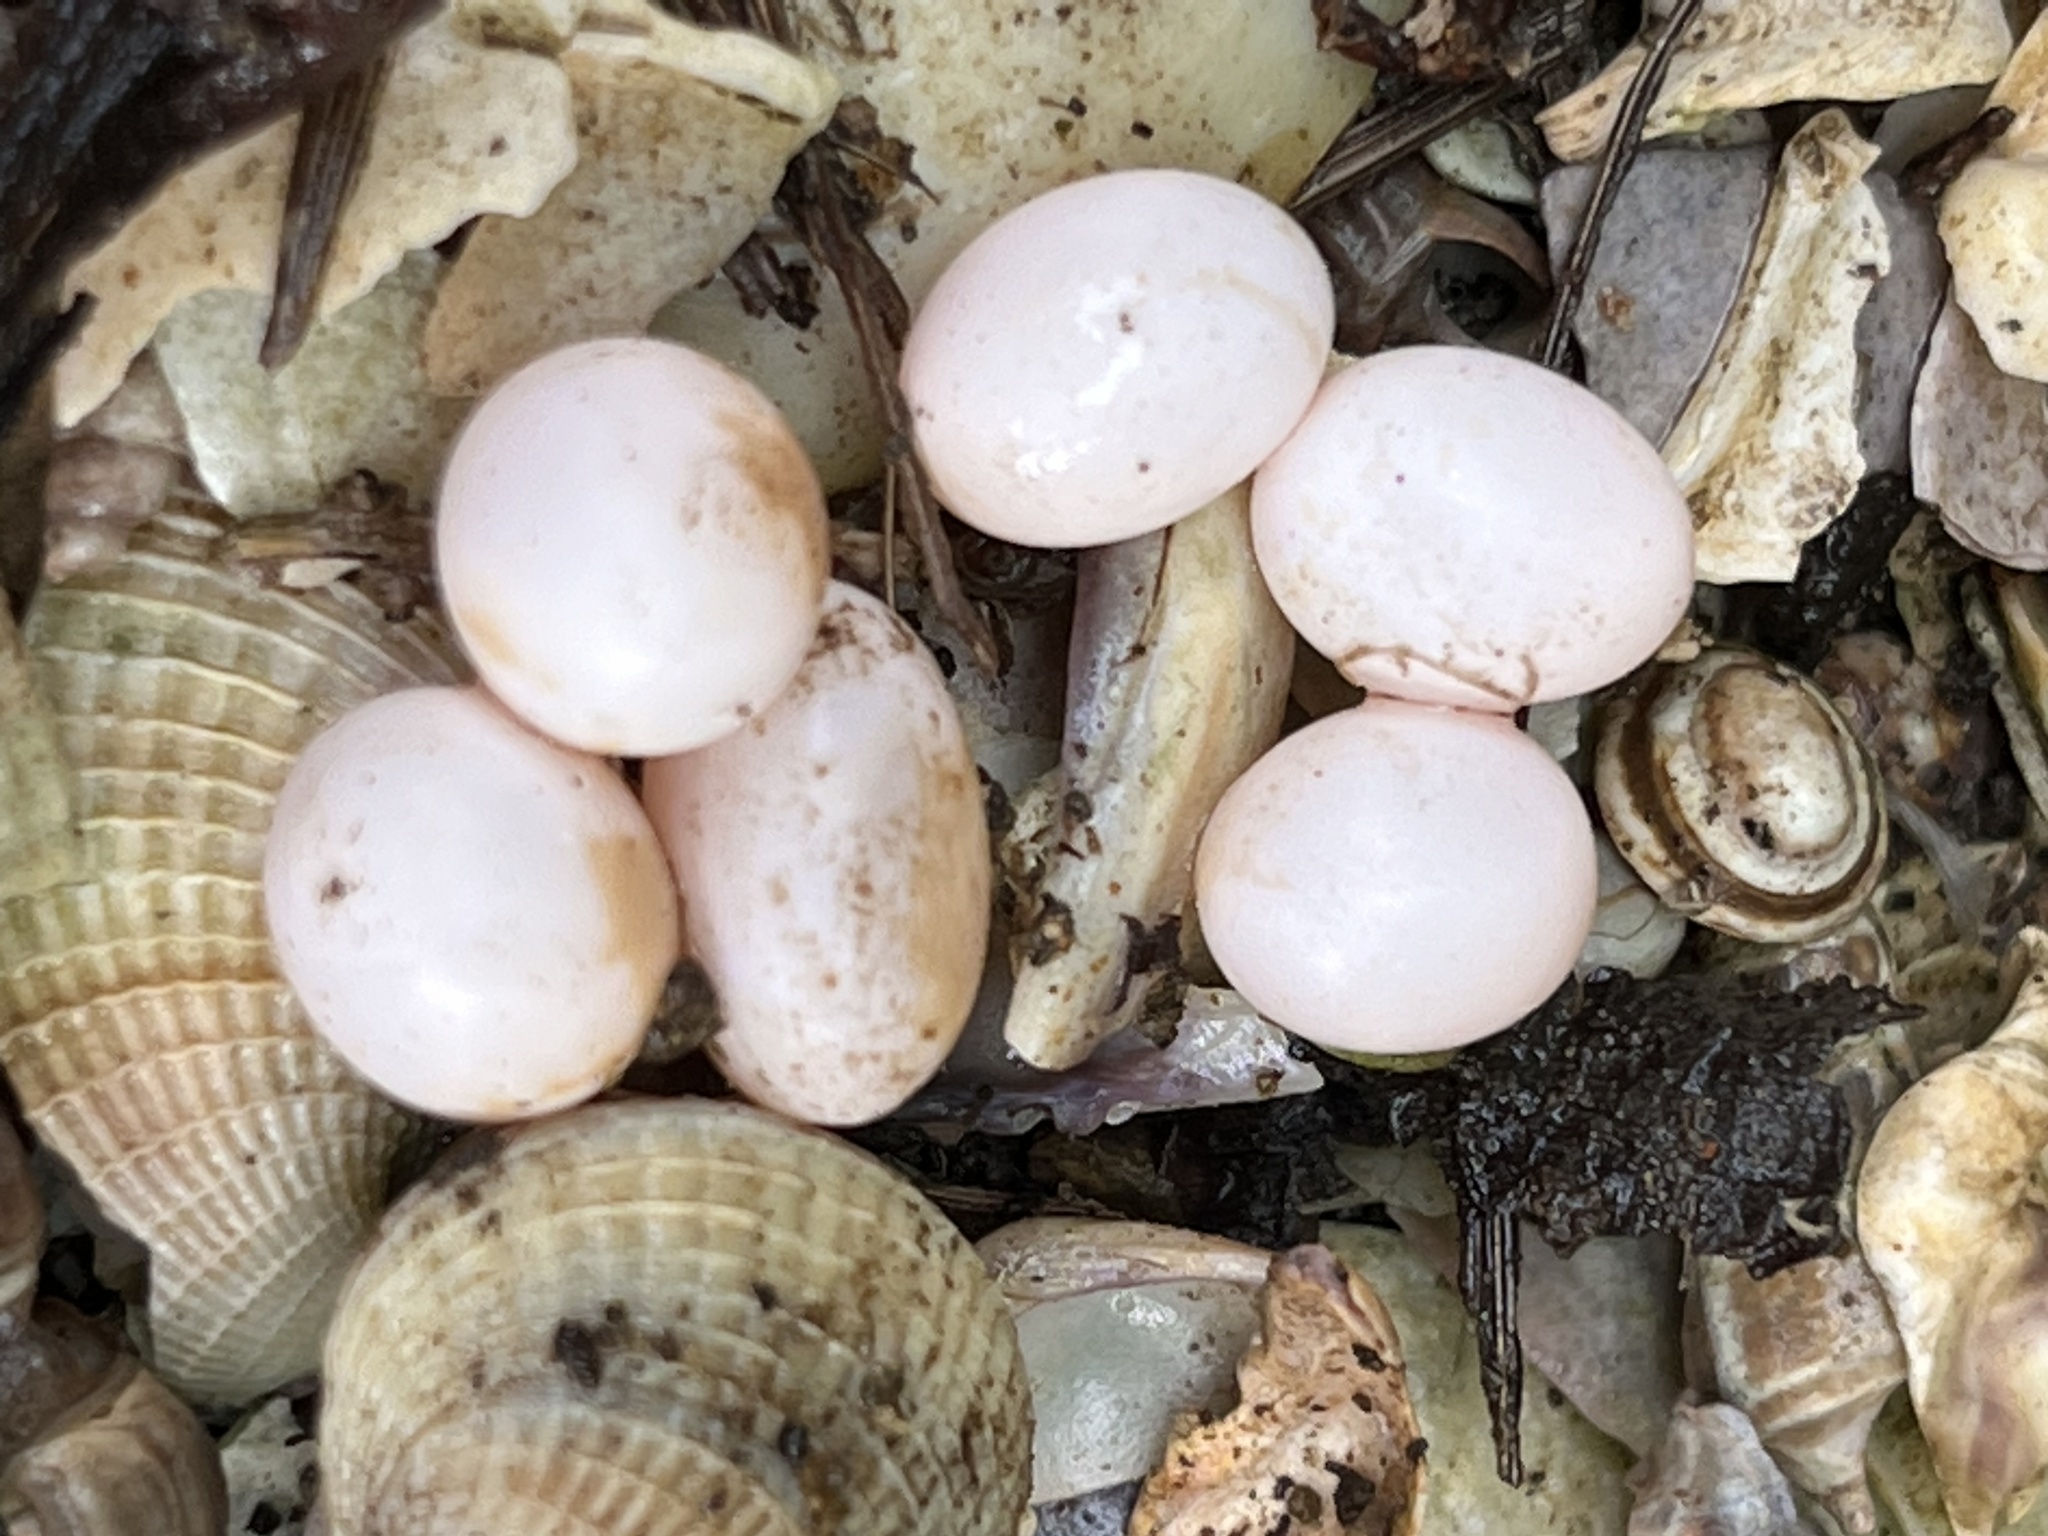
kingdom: Animalia
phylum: Chordata
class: Squamata
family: Scincidae
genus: Lampropholis
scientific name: Lampropholis delicata
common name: Plague skink
